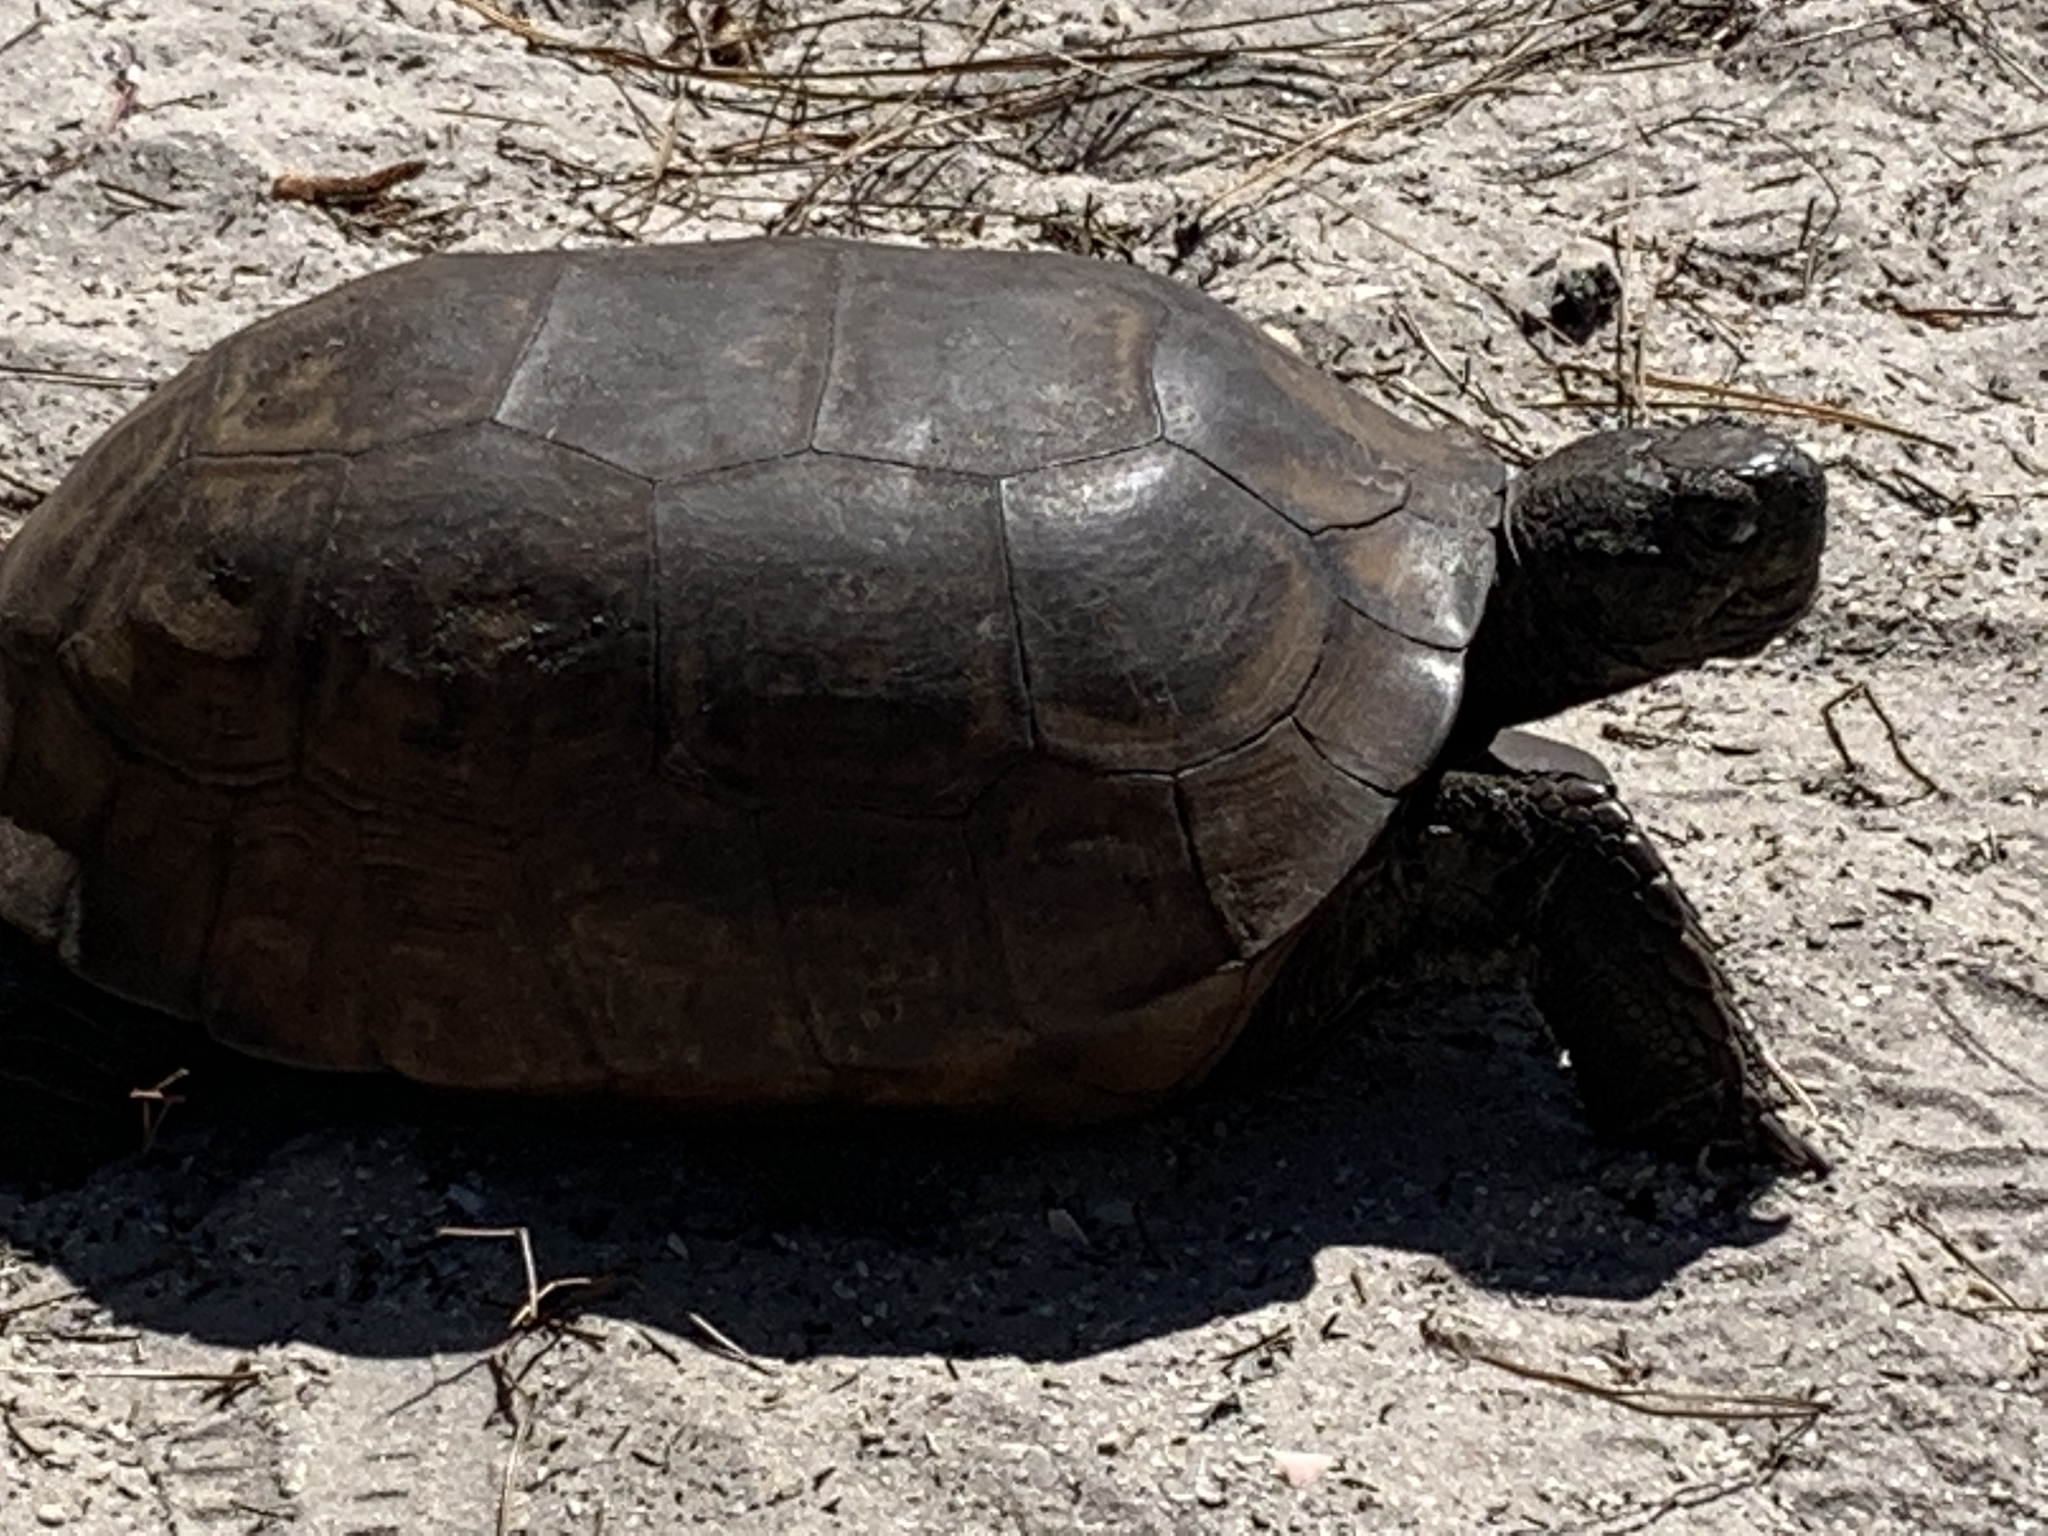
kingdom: Animalia
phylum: Chordata
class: Testudines
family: Testudinidae
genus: Gopherus
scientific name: Gopherus polyphemus
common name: Florida gopher tortoise
